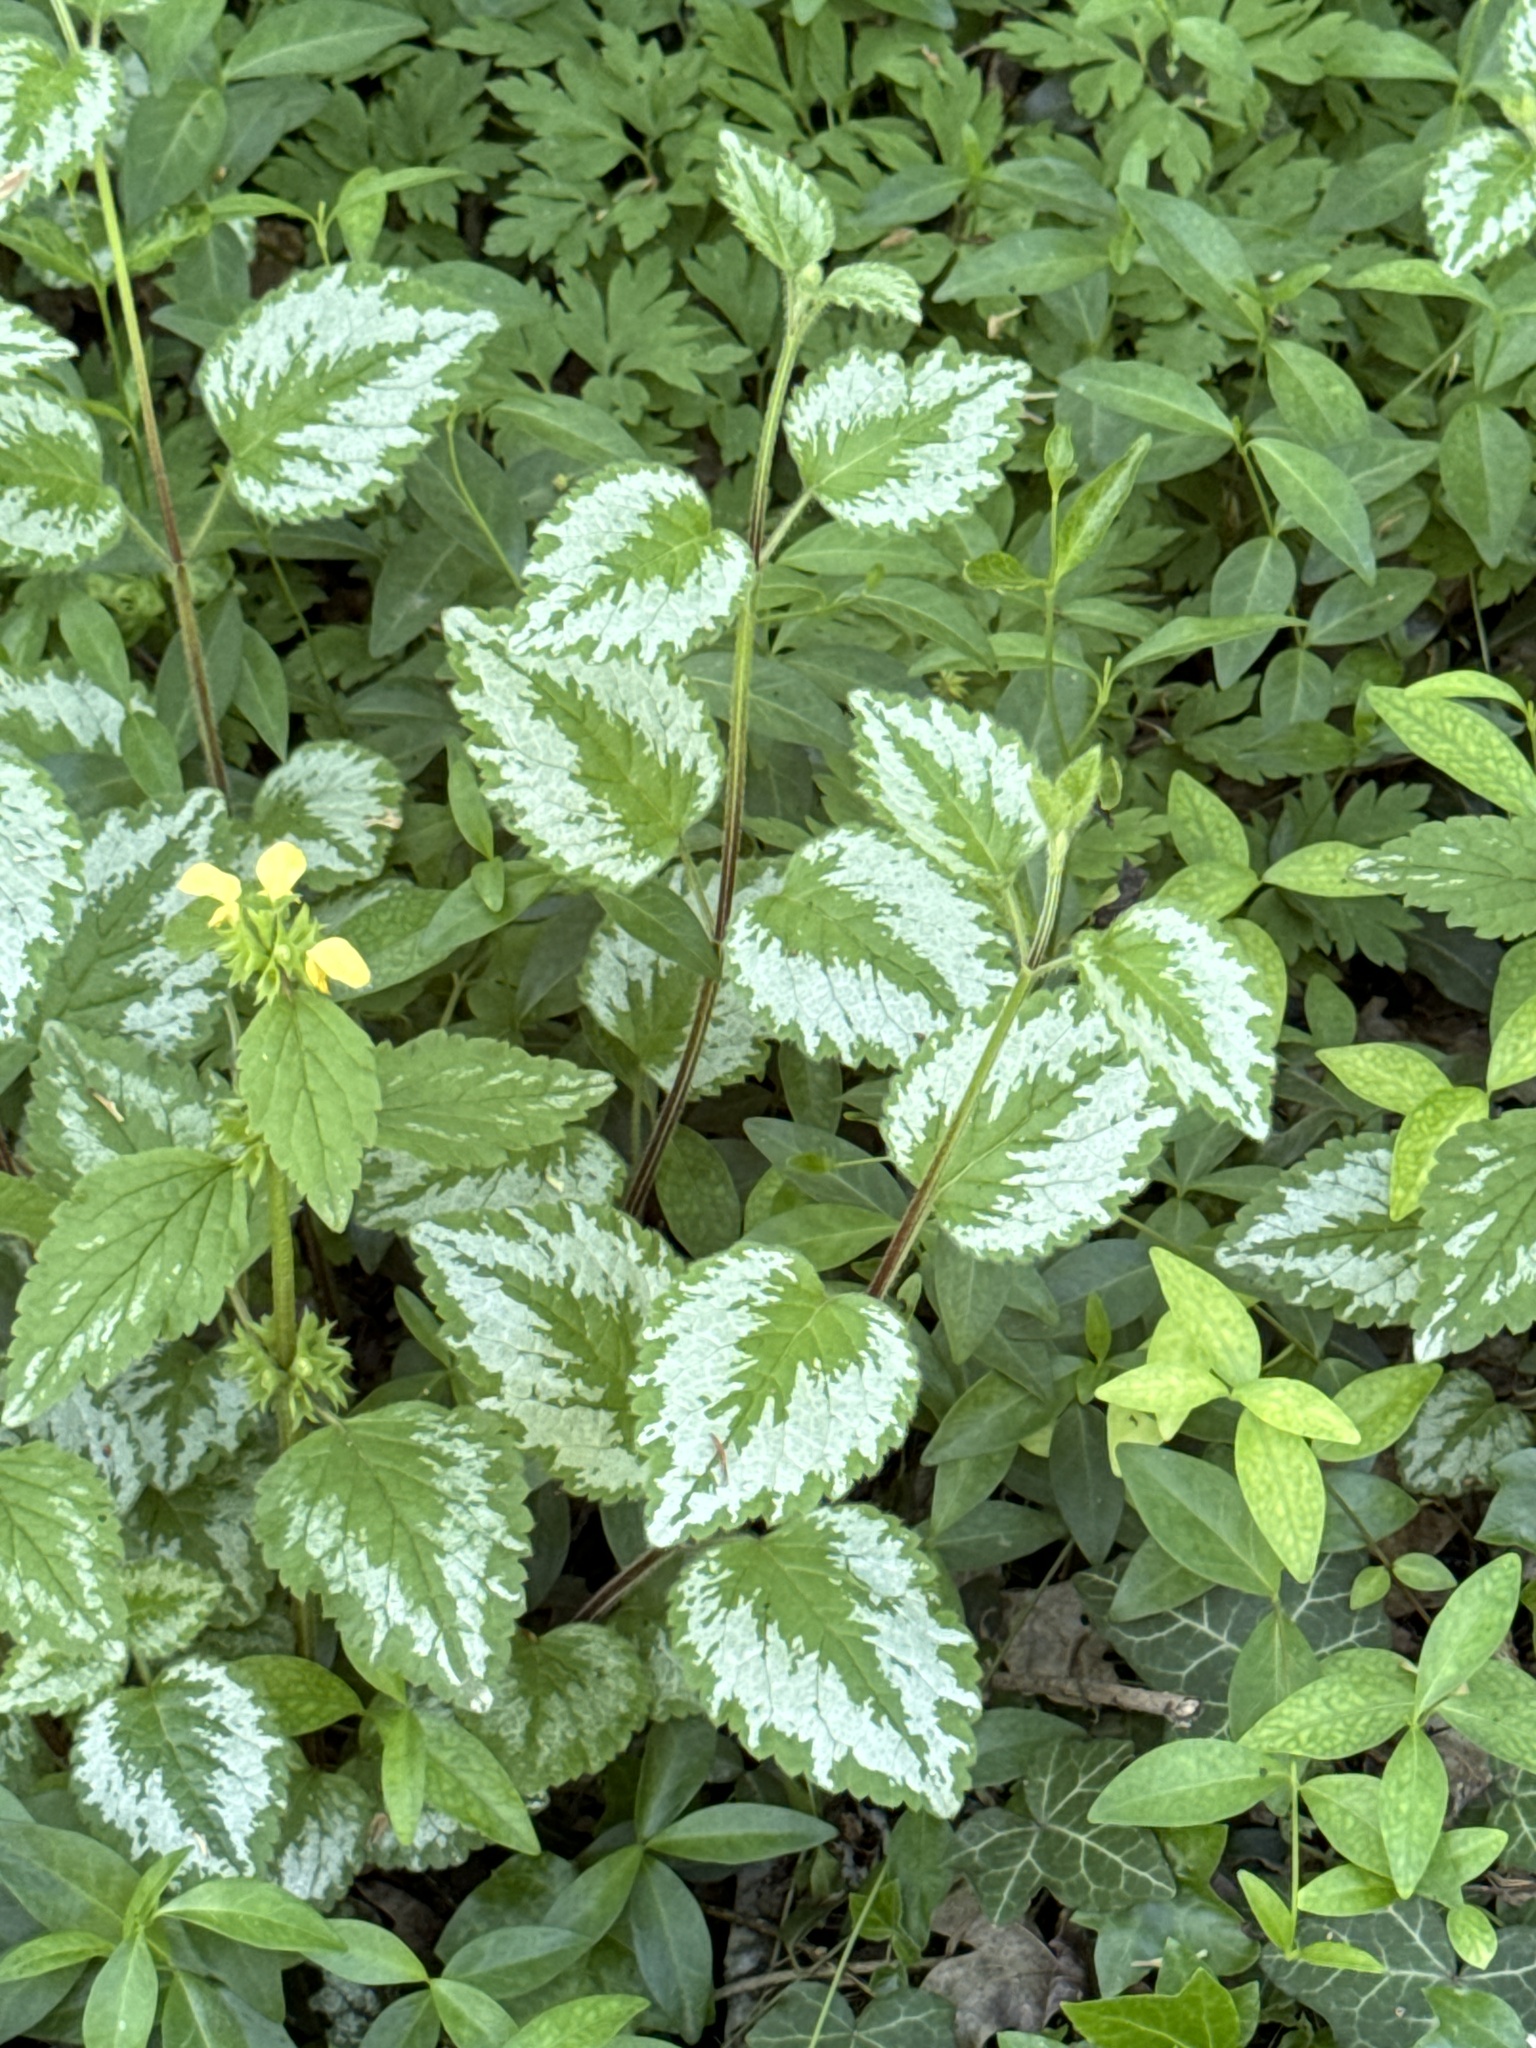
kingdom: Plantae
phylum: Tracheophyta
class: Magnoliopsida
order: Lamiales
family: Lamiaceae
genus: Lamium
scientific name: Lamium galeobdolon
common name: Yellow archangel
